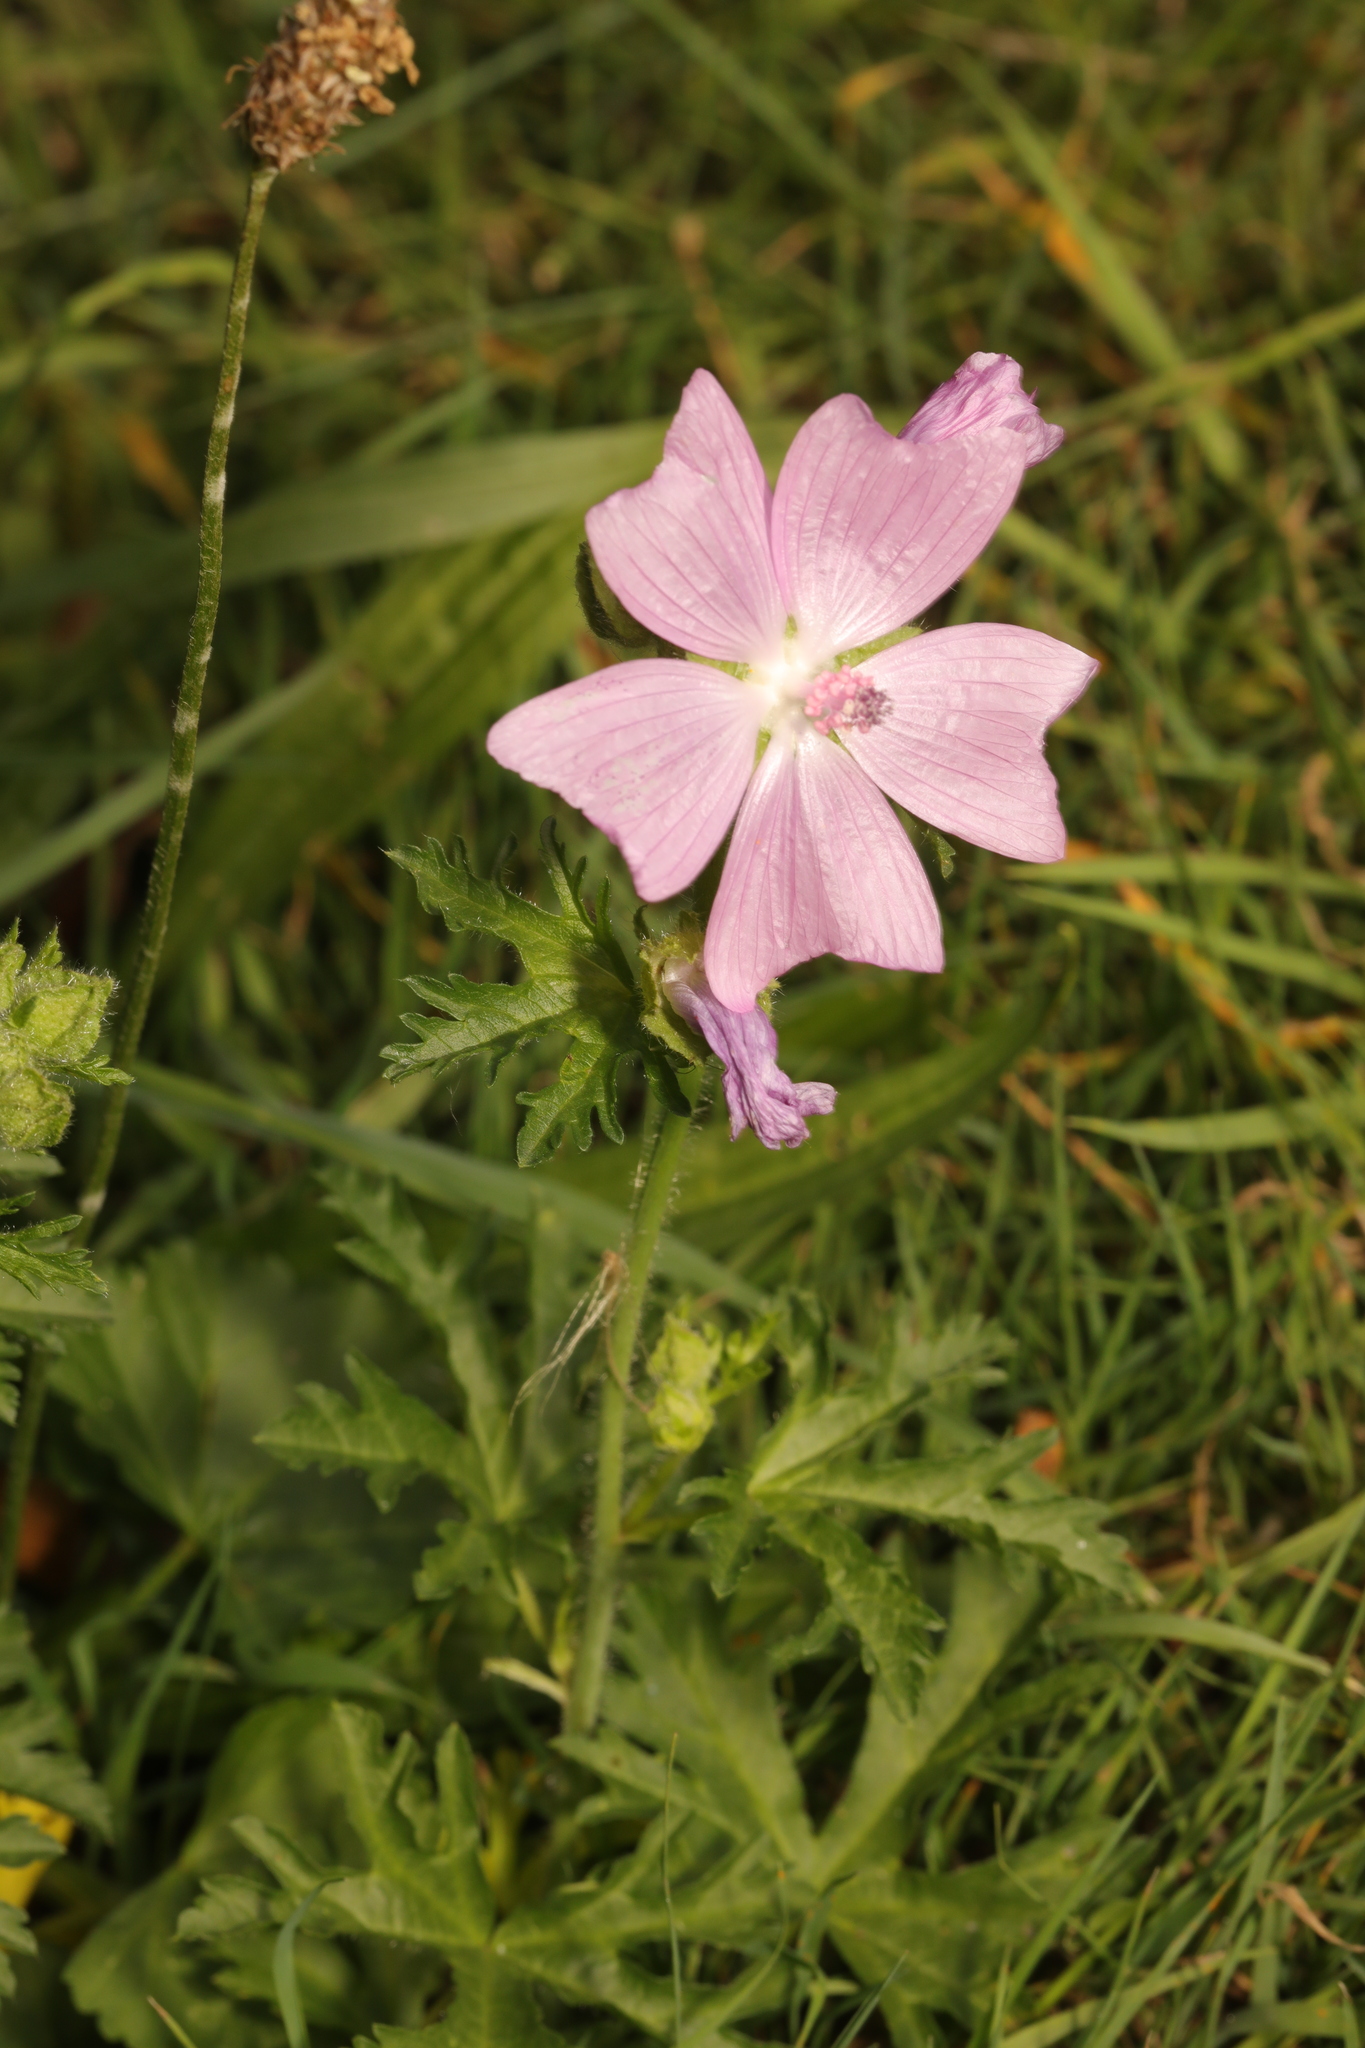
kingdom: Plantae
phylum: Tracheophyta
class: Magnoliopsida
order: Malvales
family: Malvaceae
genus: Malva
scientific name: Malva moschata
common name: Musk mallow
